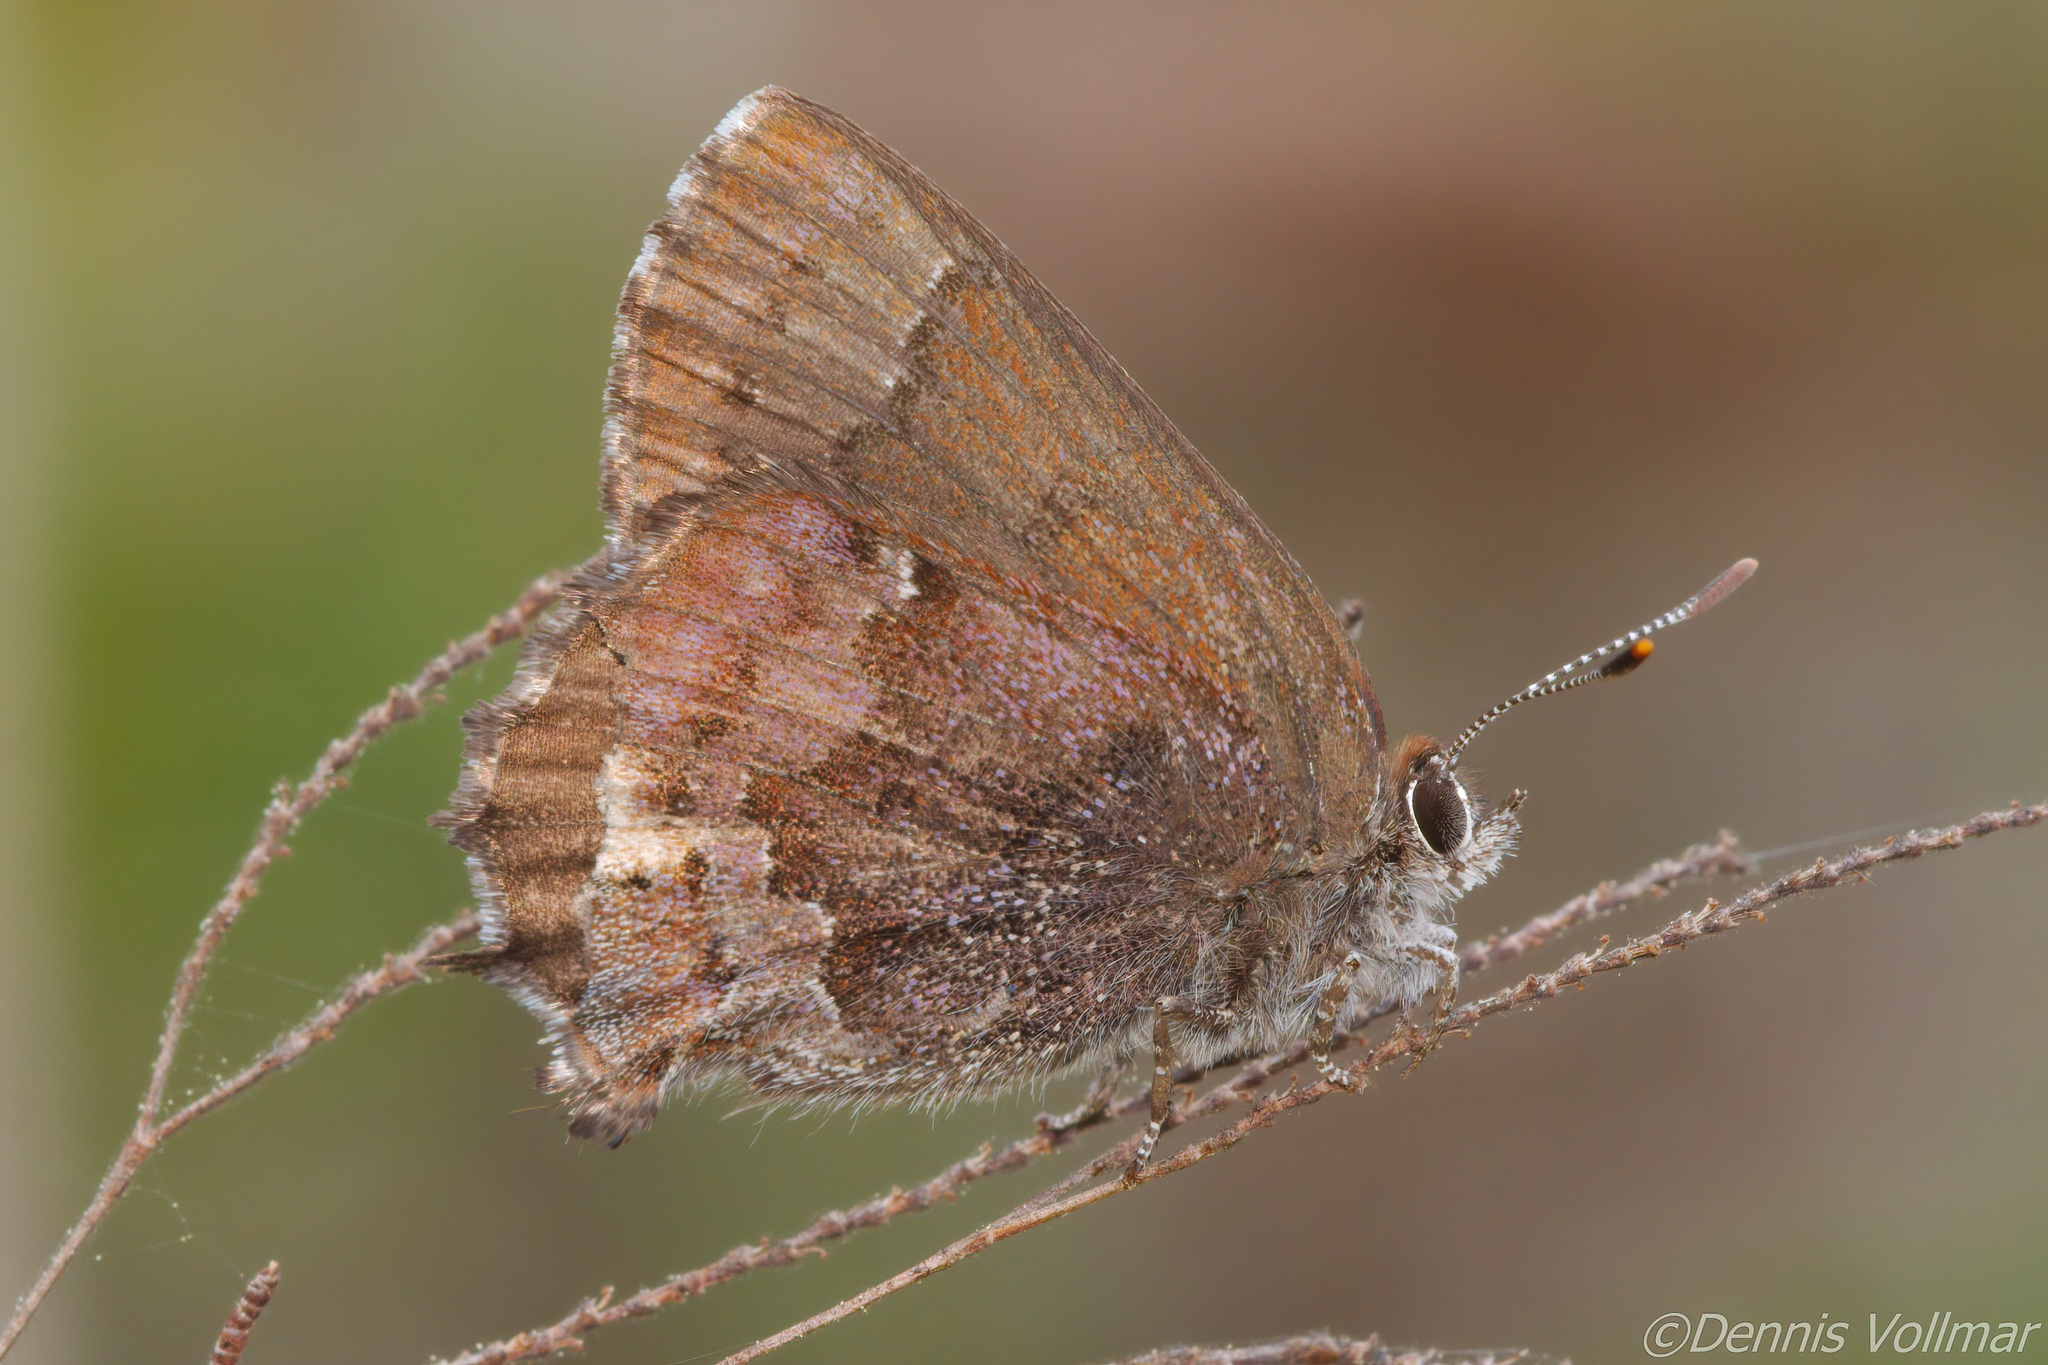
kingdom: Animalia
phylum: Arthropoda
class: Insecta
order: Lepidoptera
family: Lycaenidae
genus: Thecla
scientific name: Thecla irus
